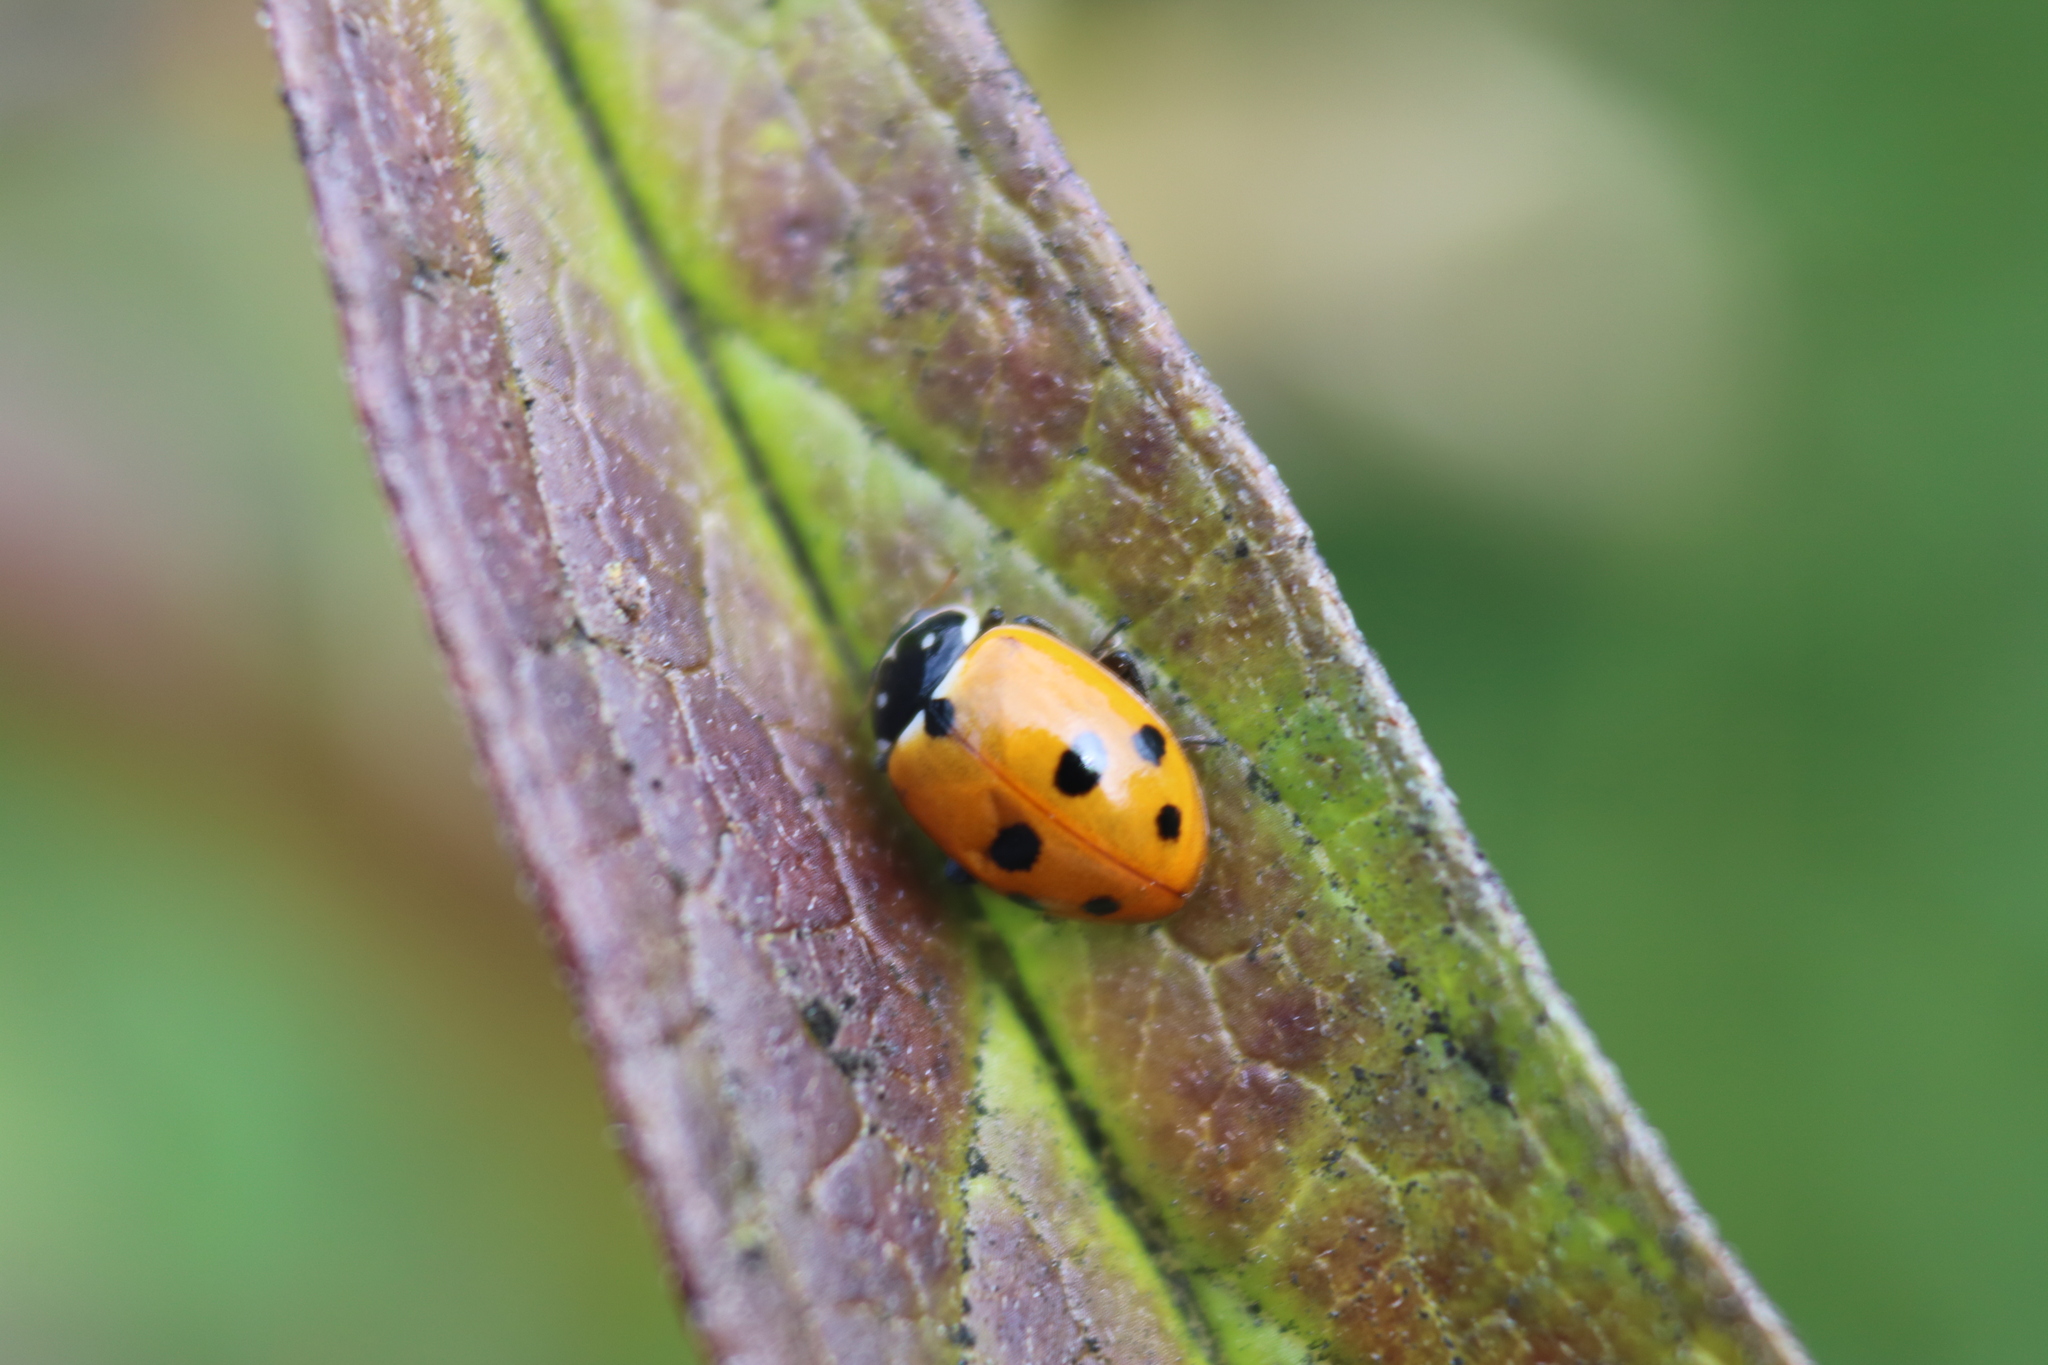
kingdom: Animalia
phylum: Arthropoda
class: Insecta
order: Coleoptera
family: Coccinellidae
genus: Hippodamia
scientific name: Hippodamia variegata
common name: Ladybird beetle
